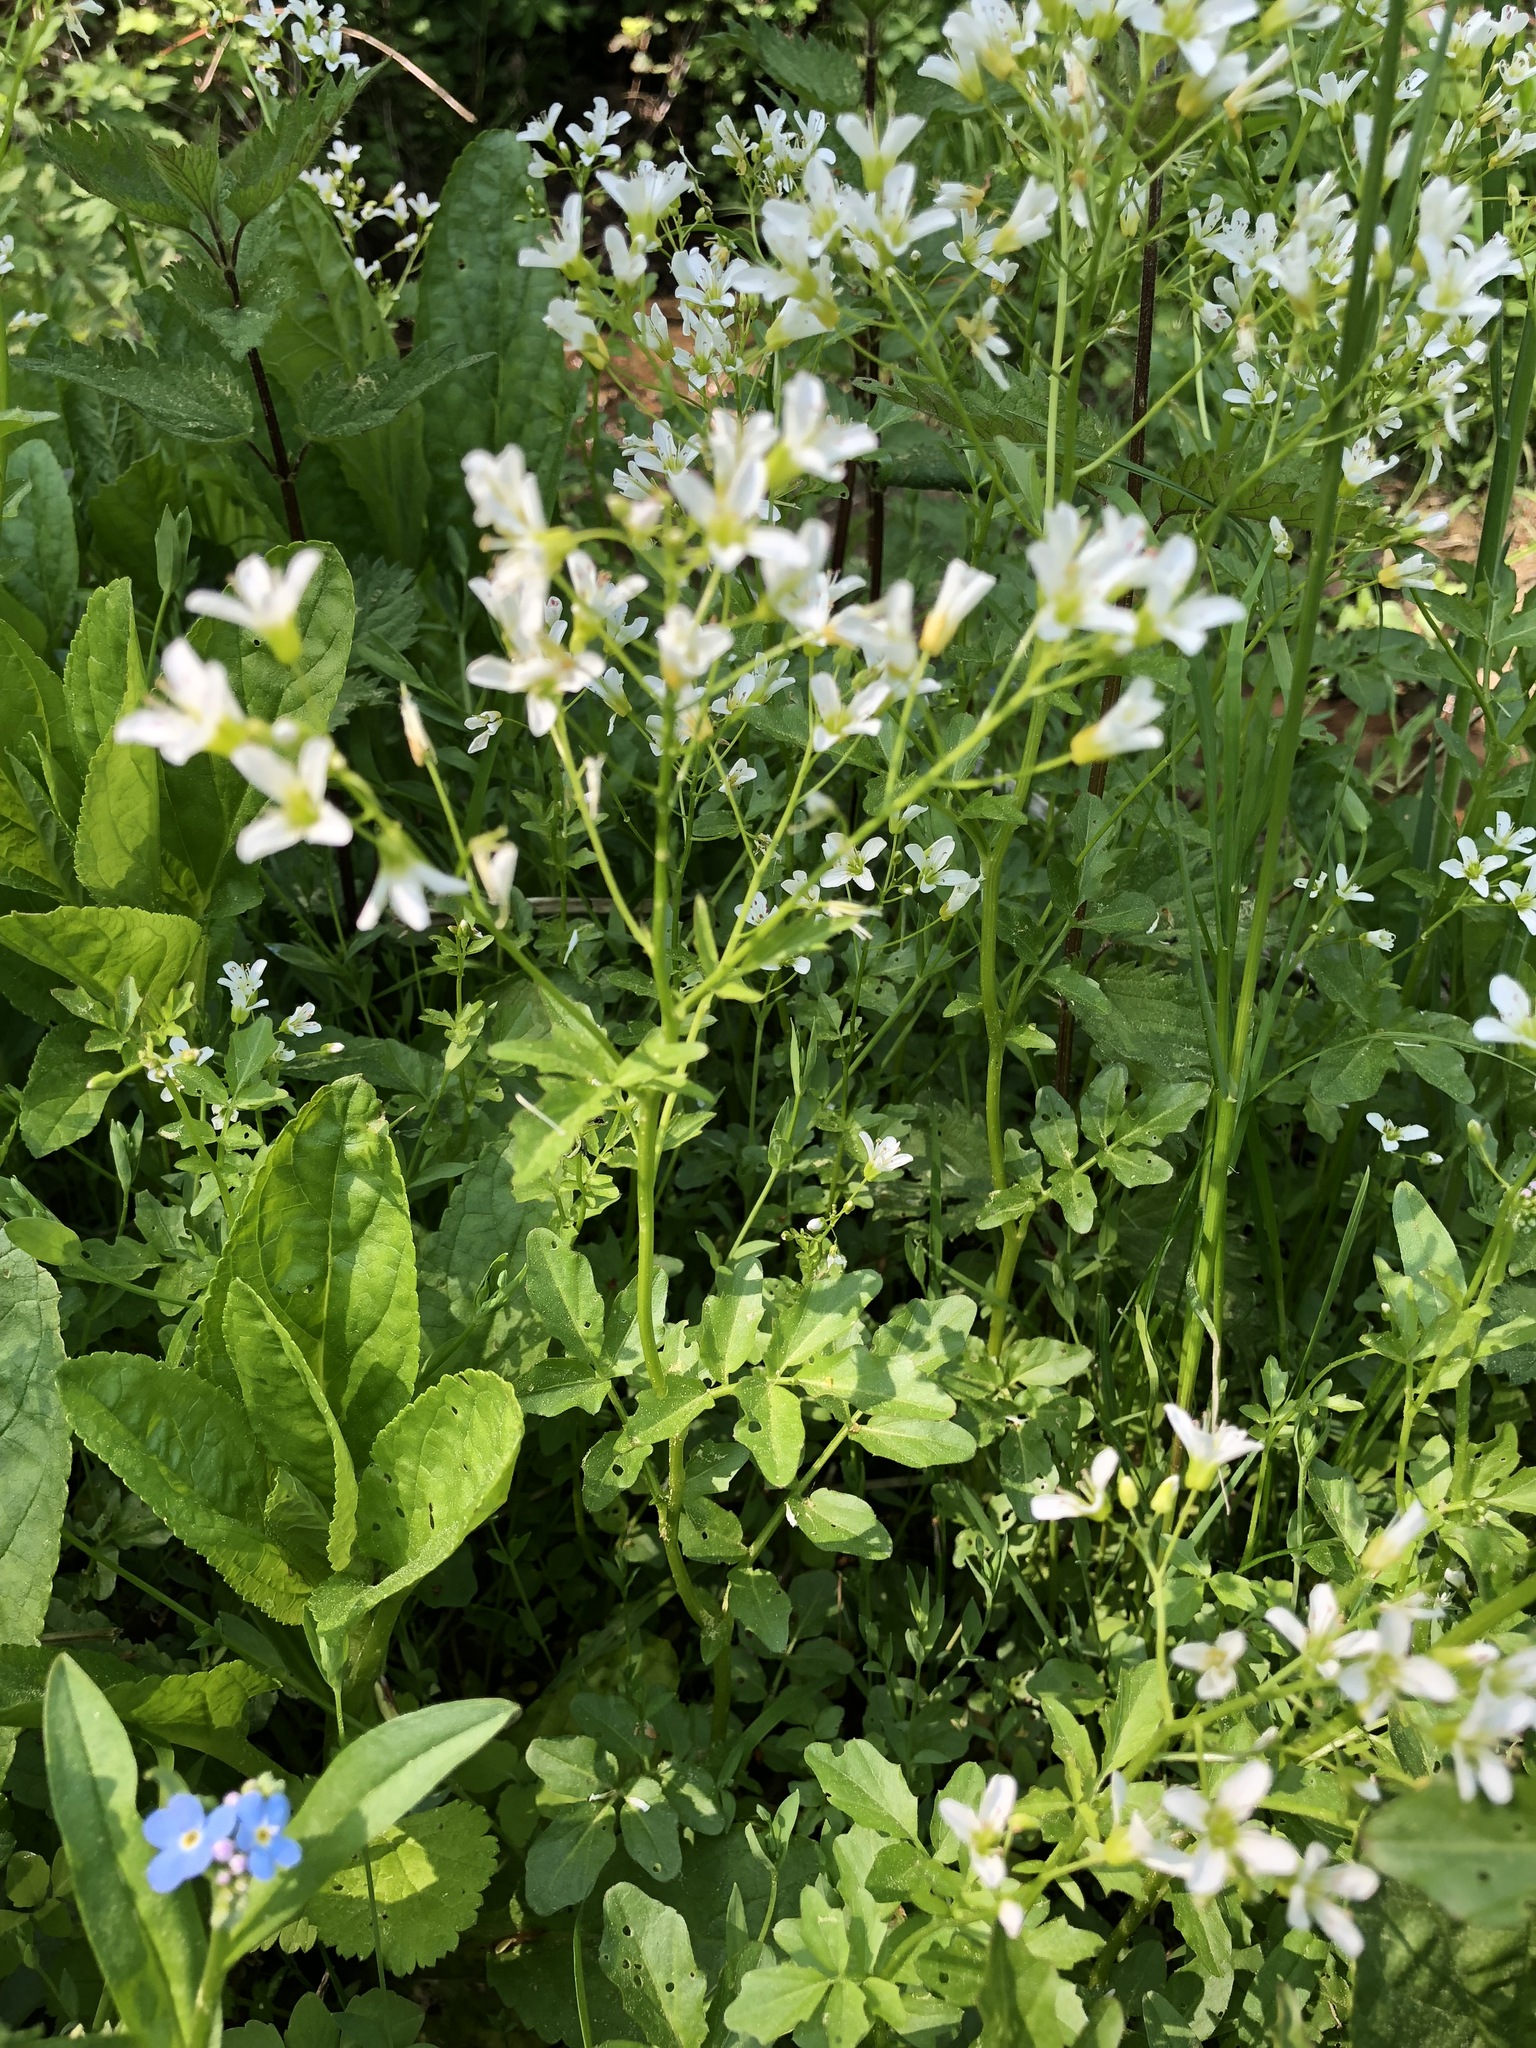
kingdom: Plantae
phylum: Tracheophyta
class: Magnoliopsida
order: Brassicales
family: Brassicaceae
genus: Cardamine
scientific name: Cardamine amara
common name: Large bitter-cress
